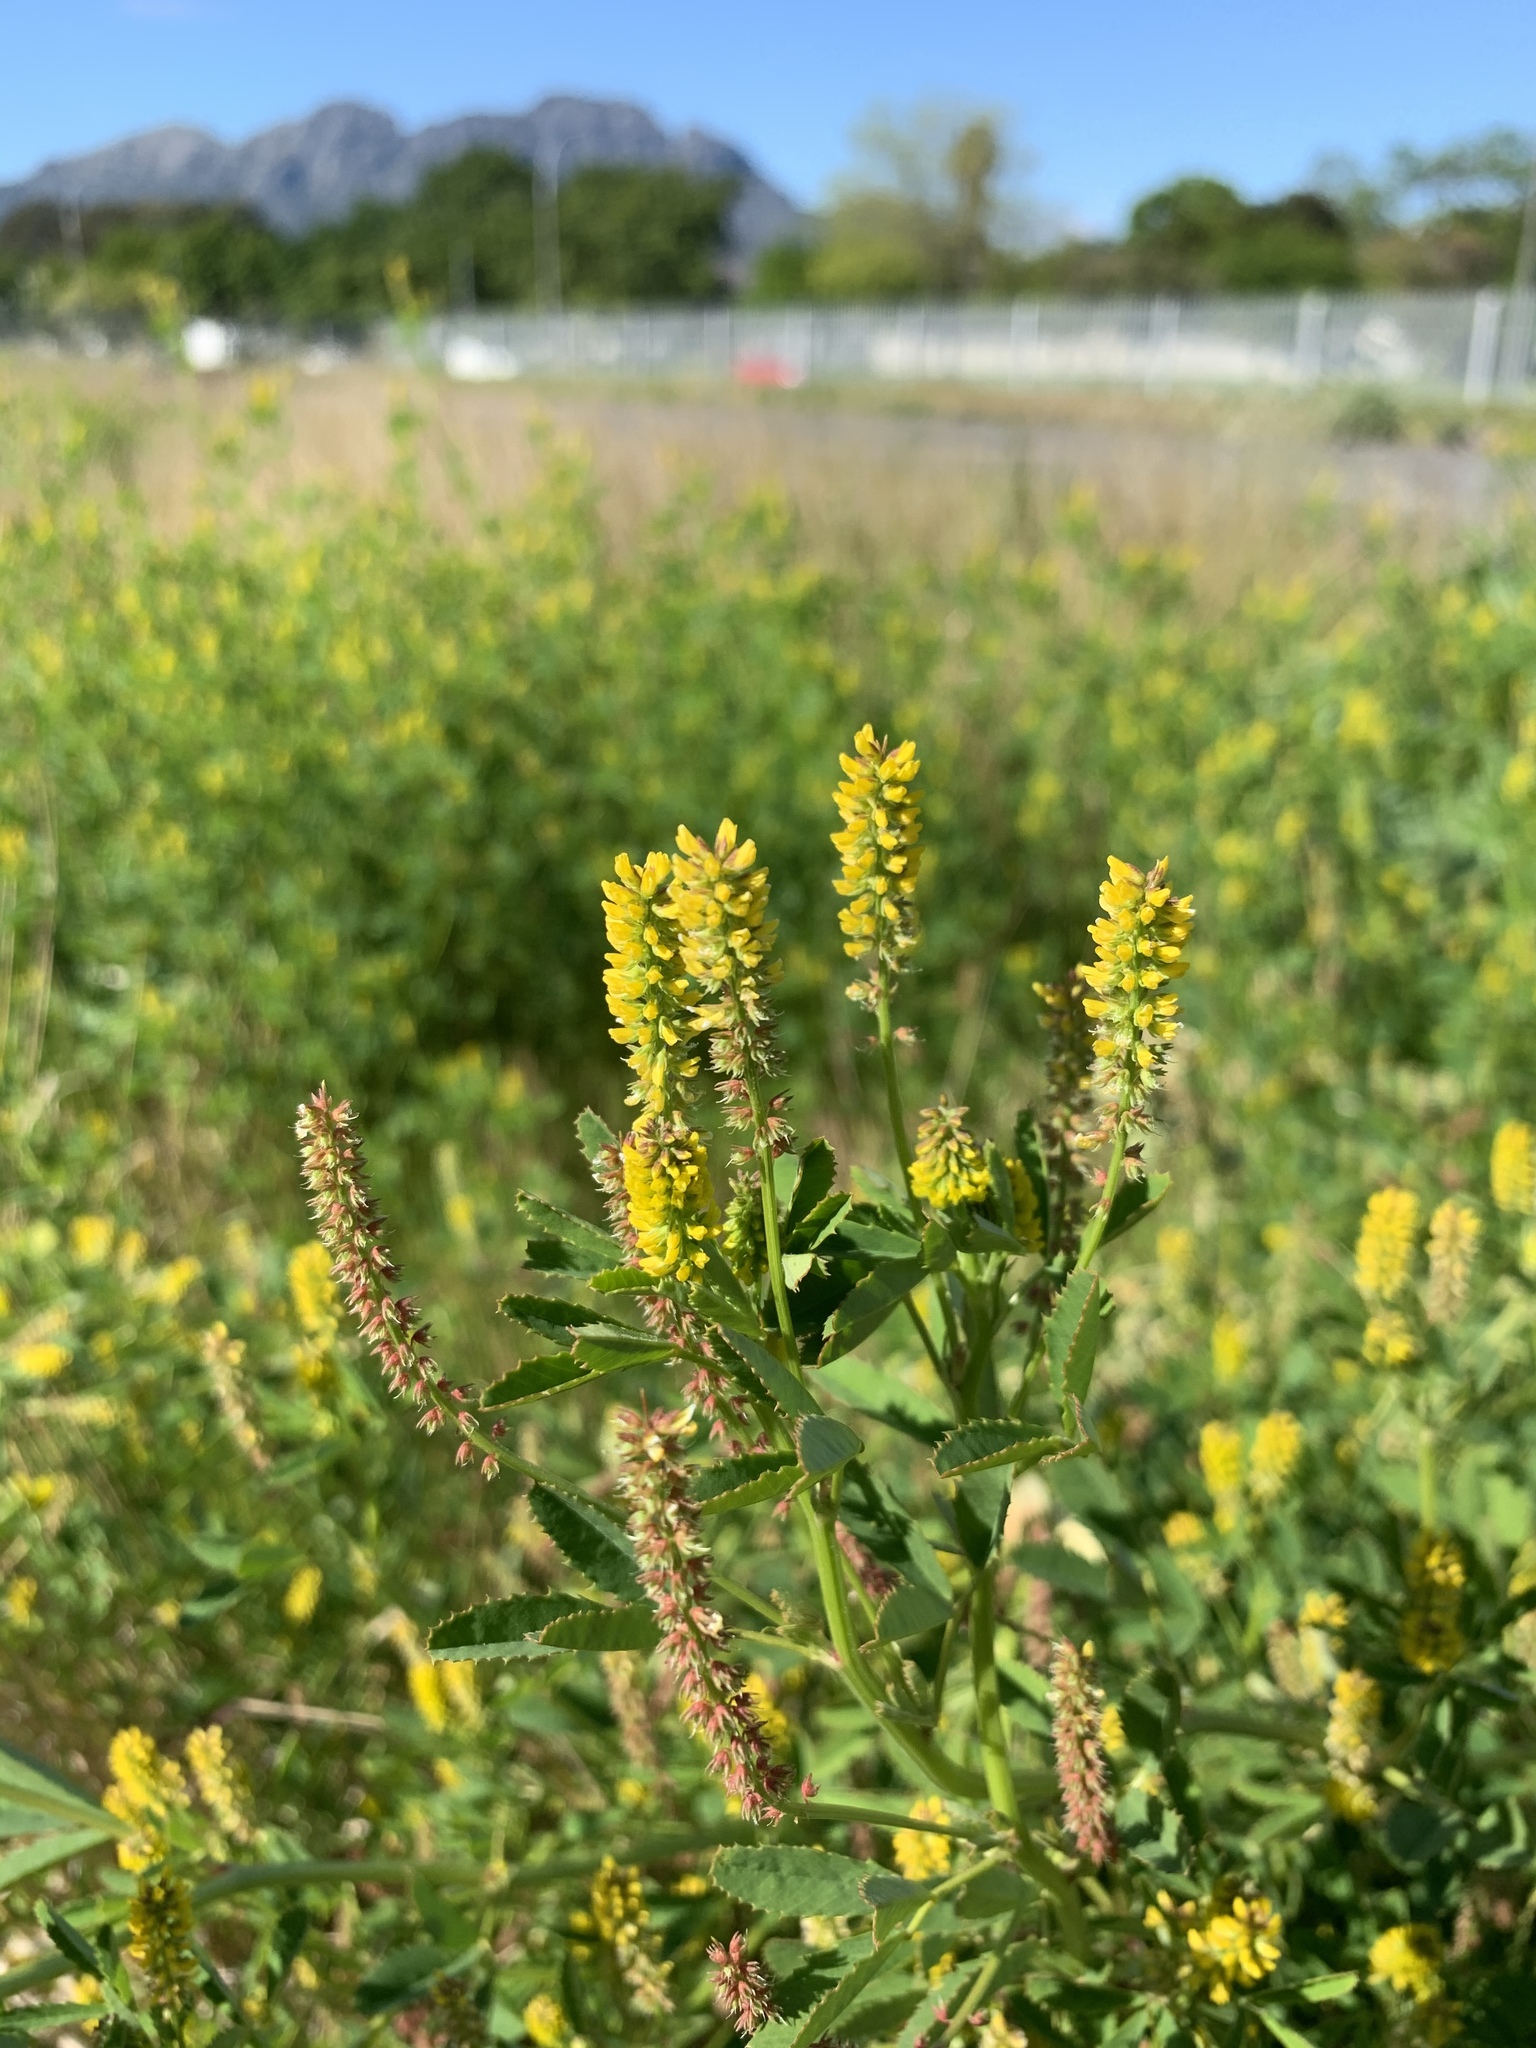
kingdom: Plantae
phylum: Tracheophyta
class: Magnoliopsida
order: Fabales
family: Fabaceae
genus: Melilotus
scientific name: Melilotus indicus
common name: Small melilot
